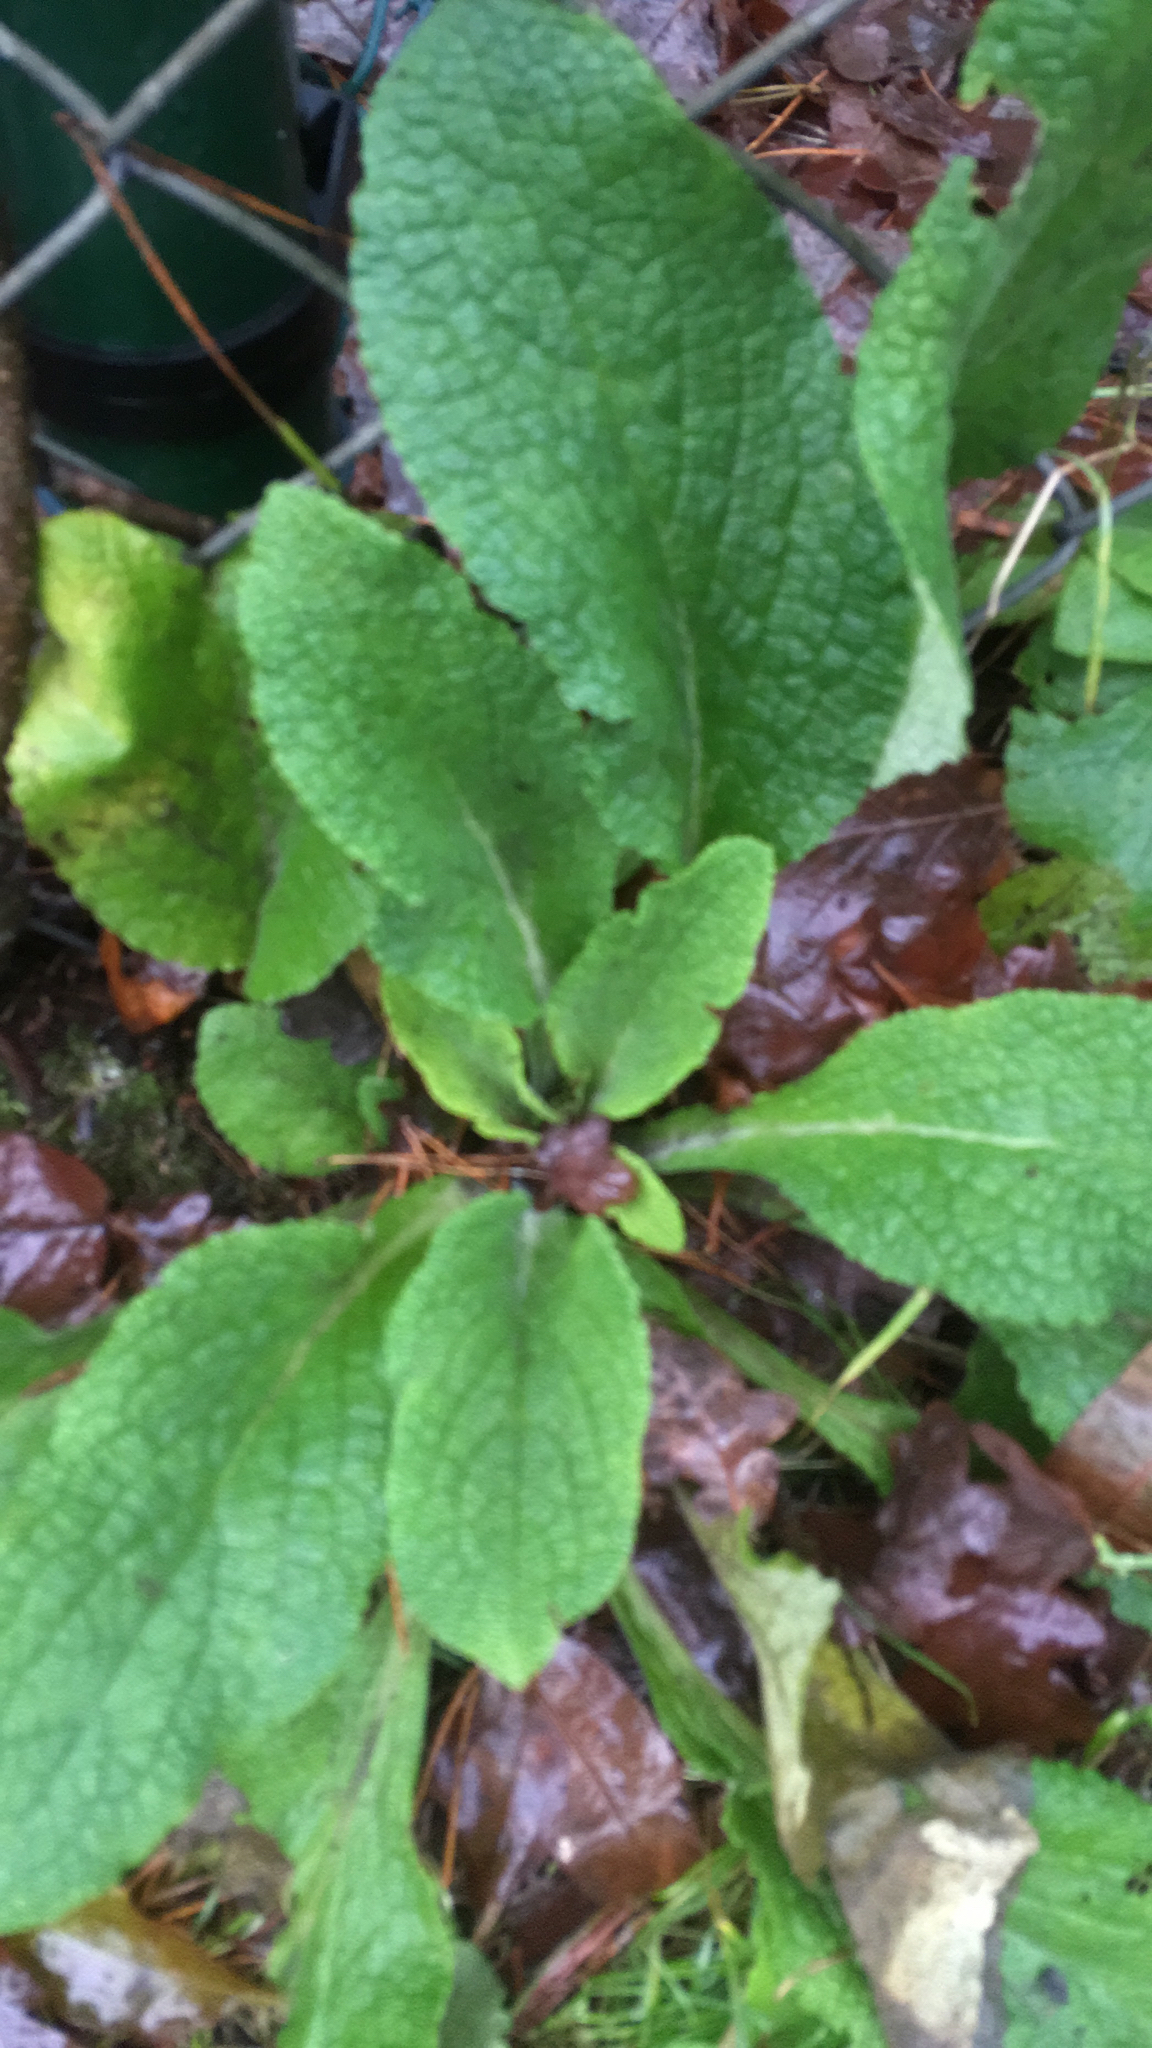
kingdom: Plantae
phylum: Tracheophyta
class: Magnoliopsida
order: Lamiales
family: Plantaginaceae
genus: Digitalis
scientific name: Digitalis purpurea
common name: Foxglove
